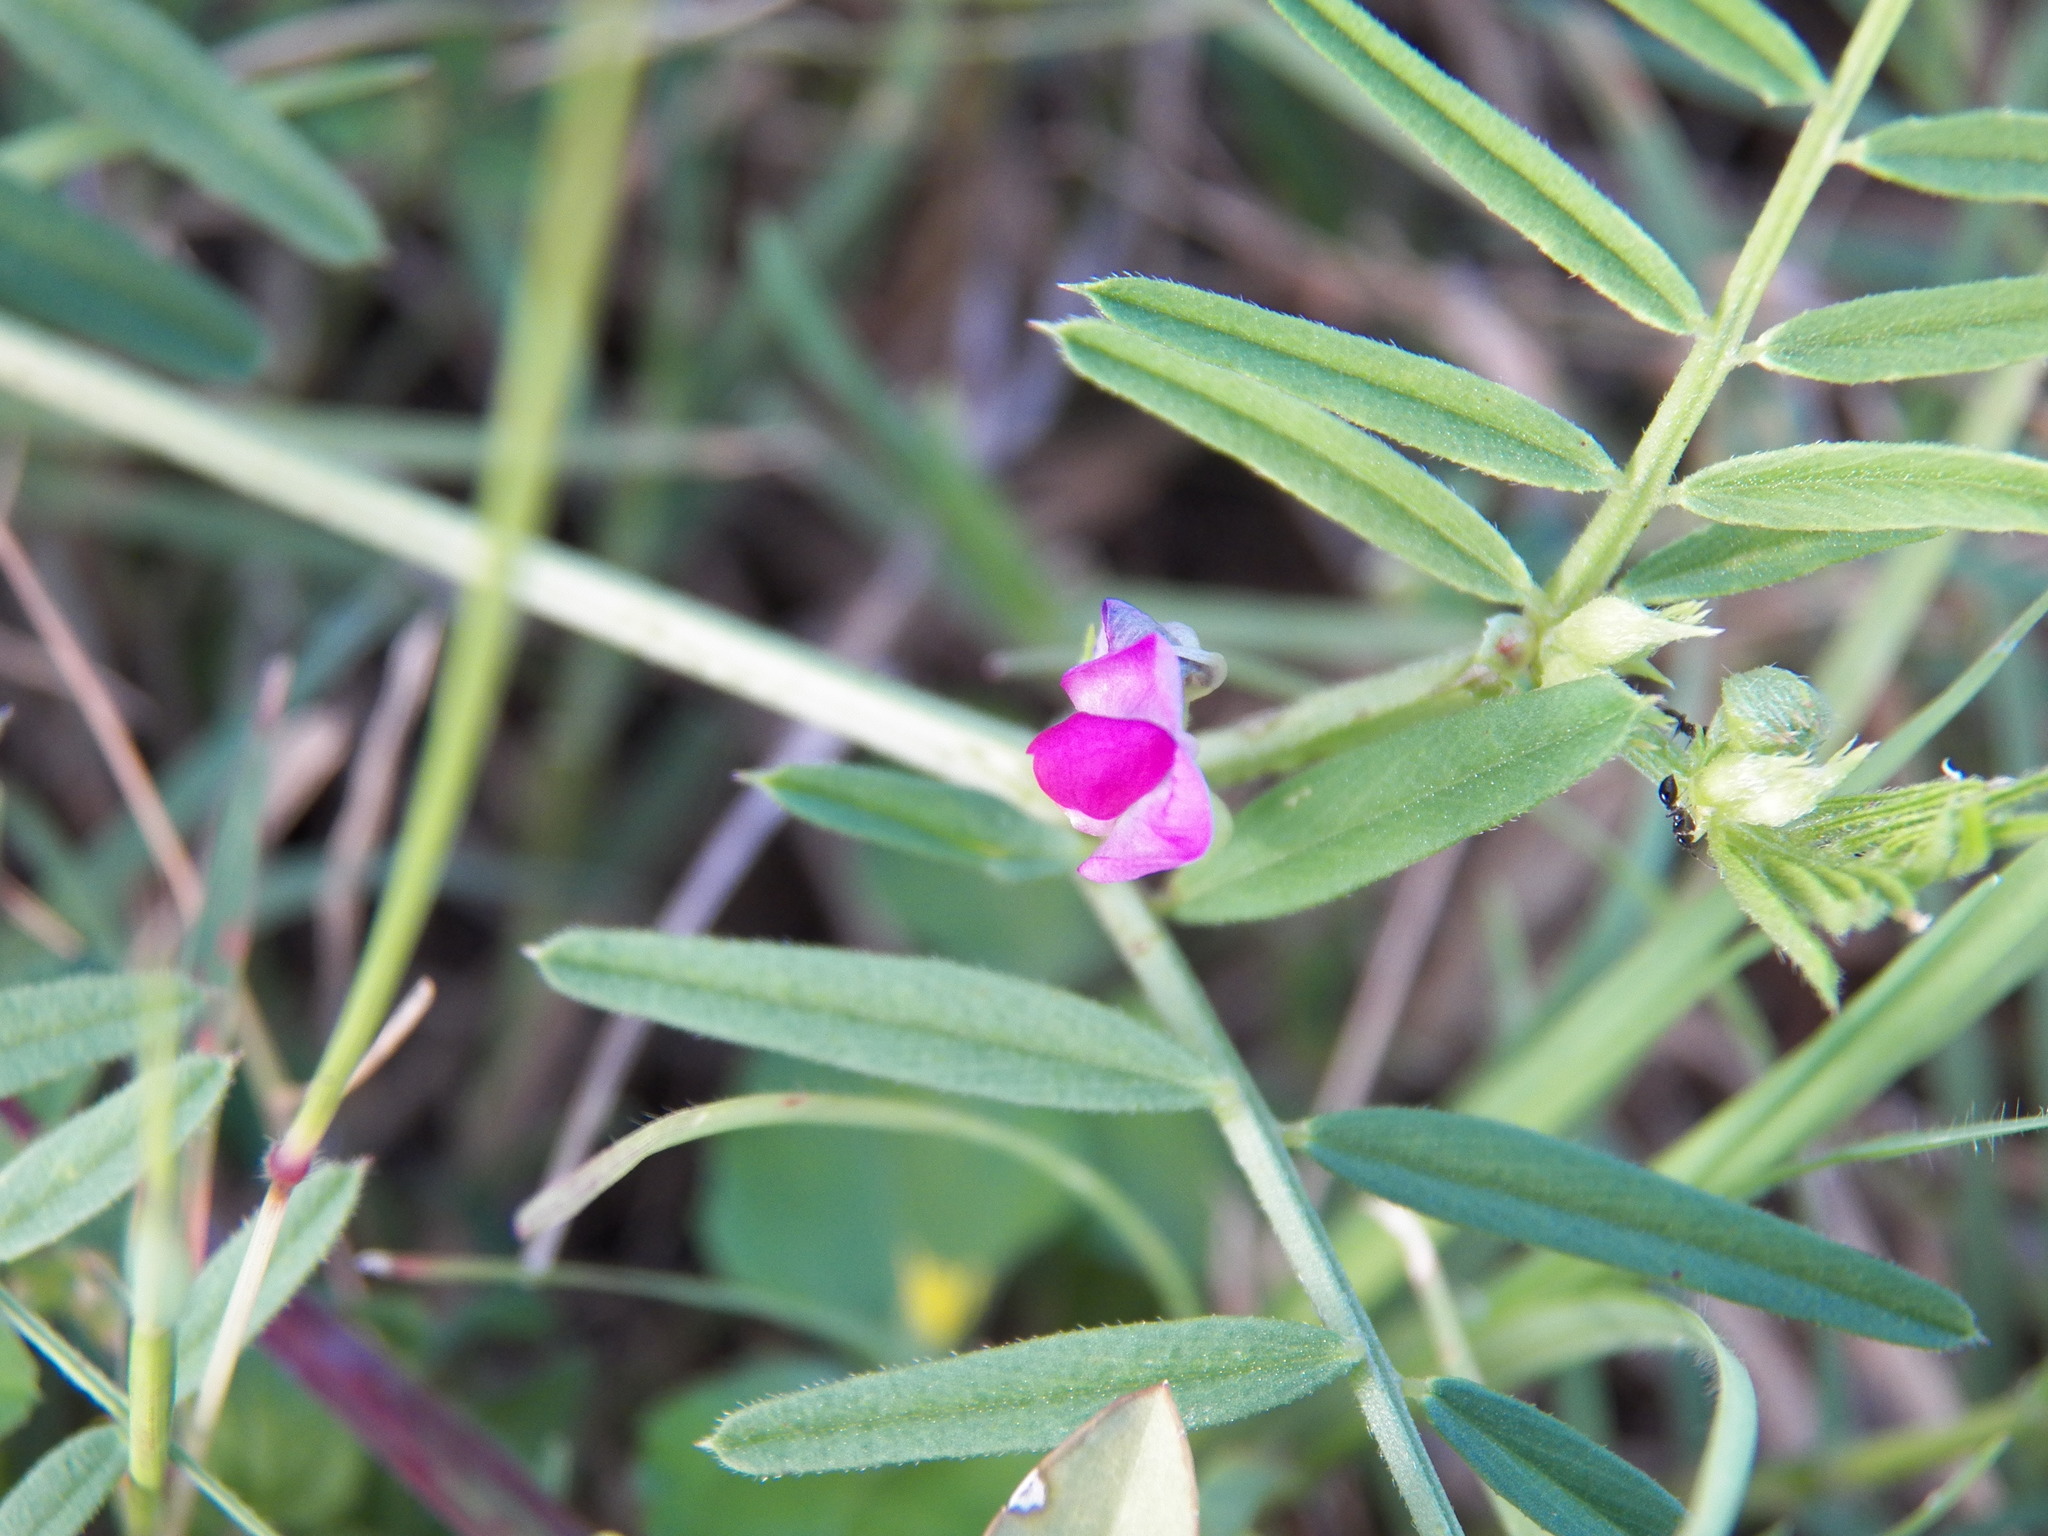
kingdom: Plantae
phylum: Tracheophyta
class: Magnoliopsida
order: Fabales
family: Fabaceae
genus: Vicia
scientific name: Vicia sativa
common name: Garden vetch
